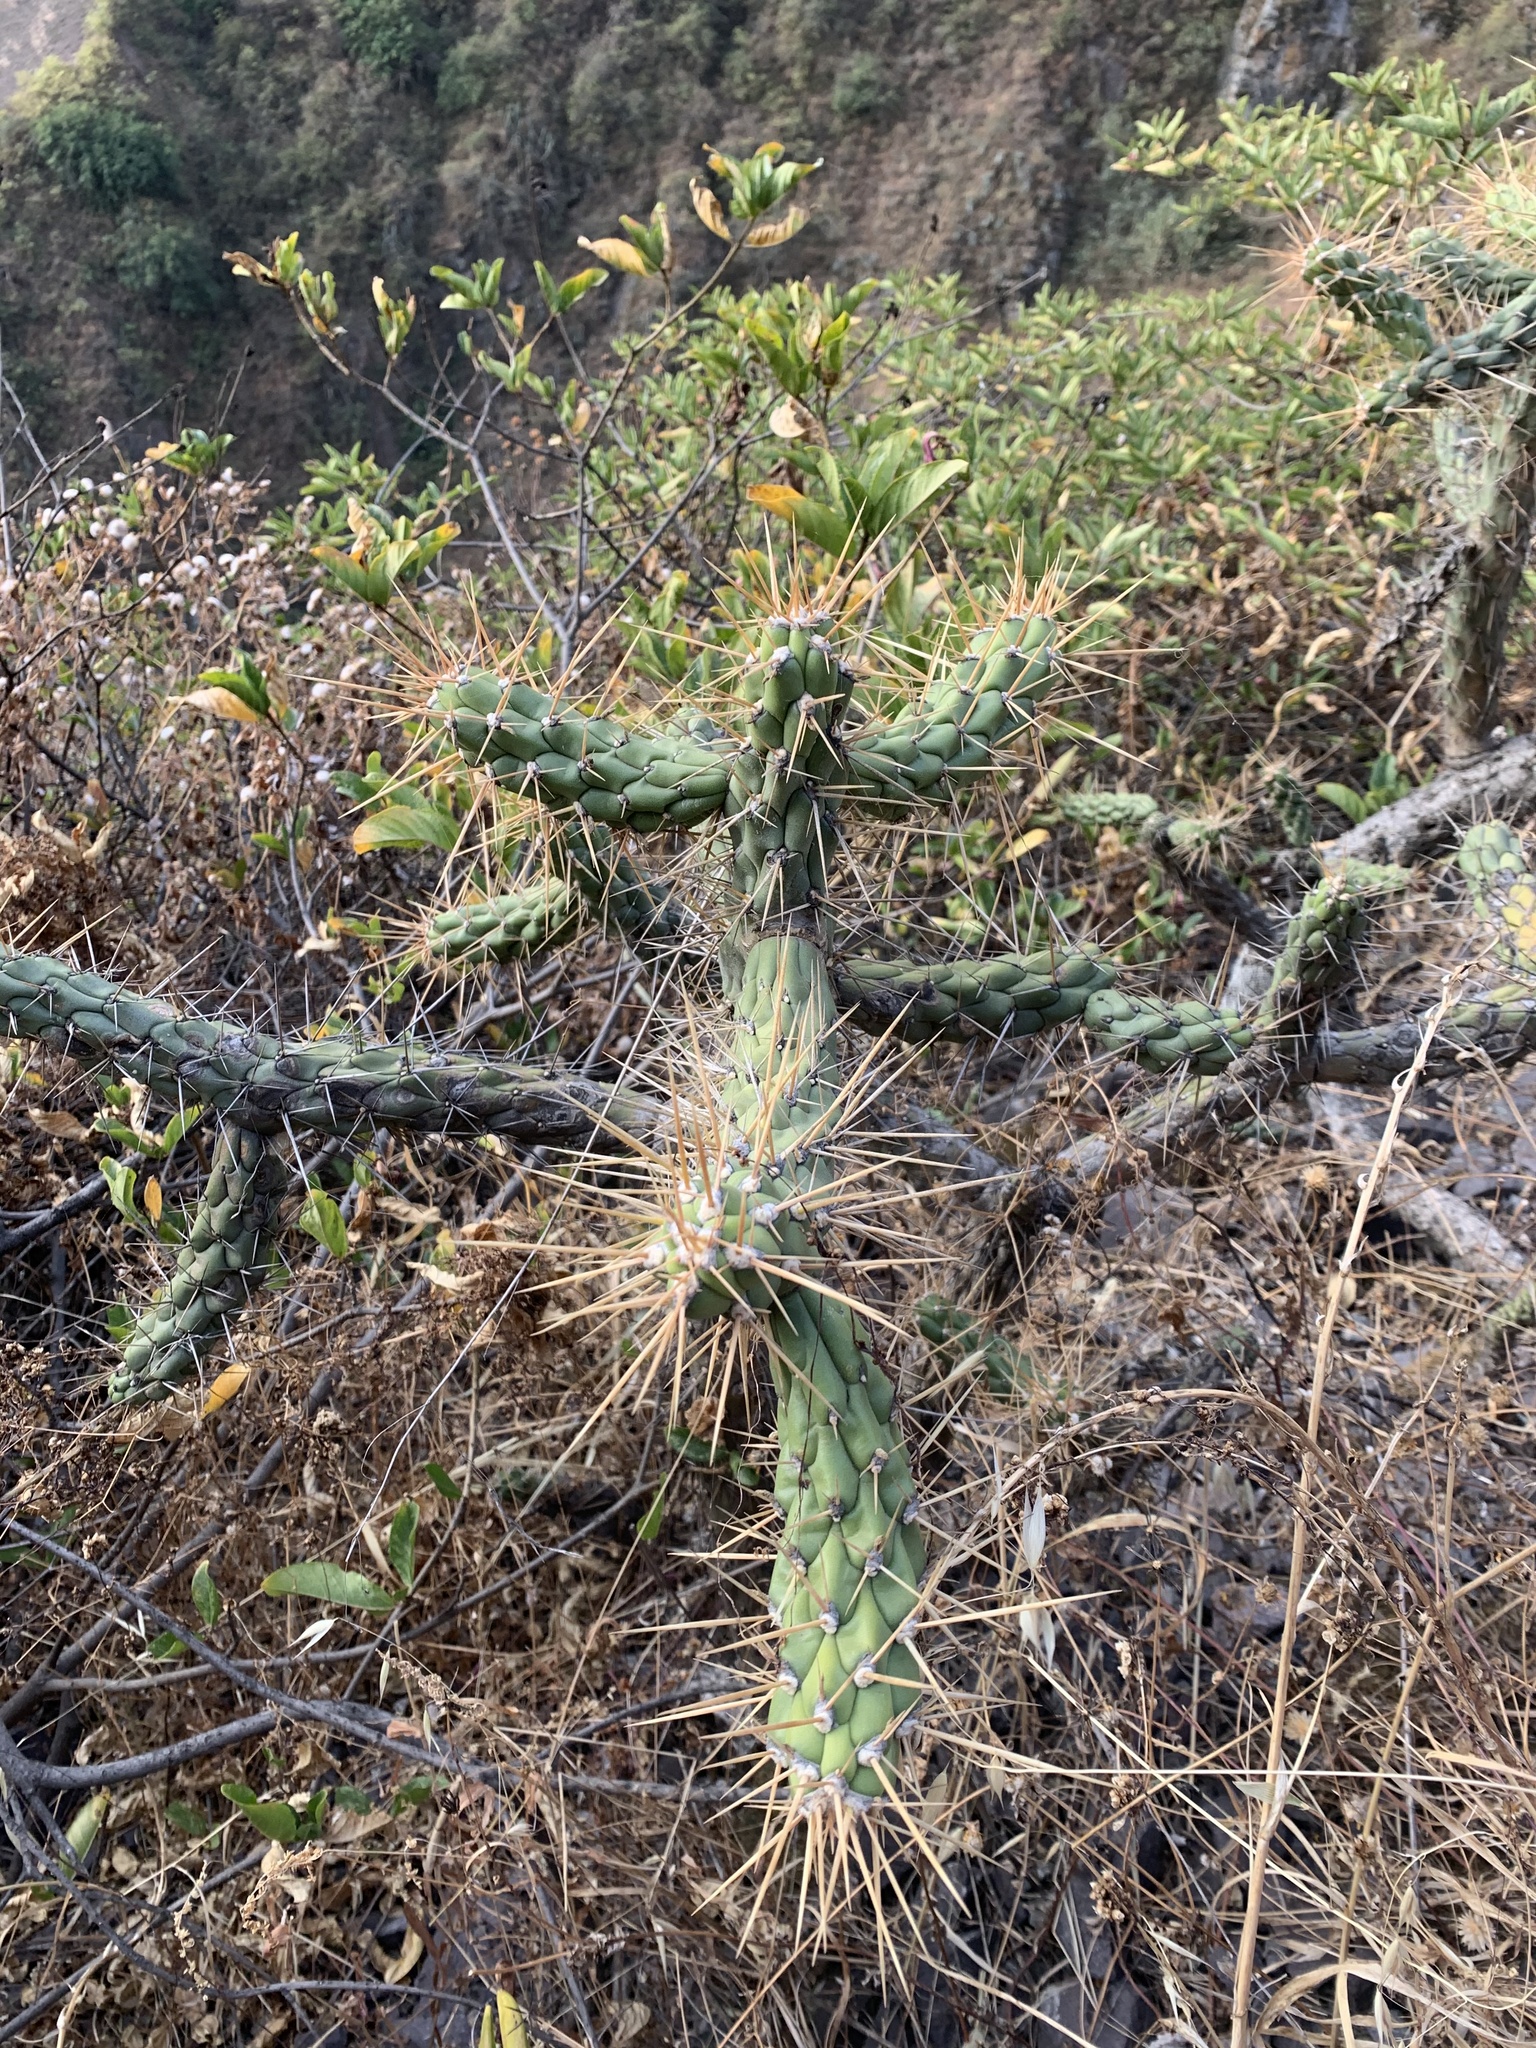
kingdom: Plantae
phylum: Tracheophyta
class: Magnoliopsida
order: Caryophyllales
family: Cactaceae
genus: Austrocylindropuntia
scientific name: Austrocylindropuntia subulata
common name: Eve's needle cactus
